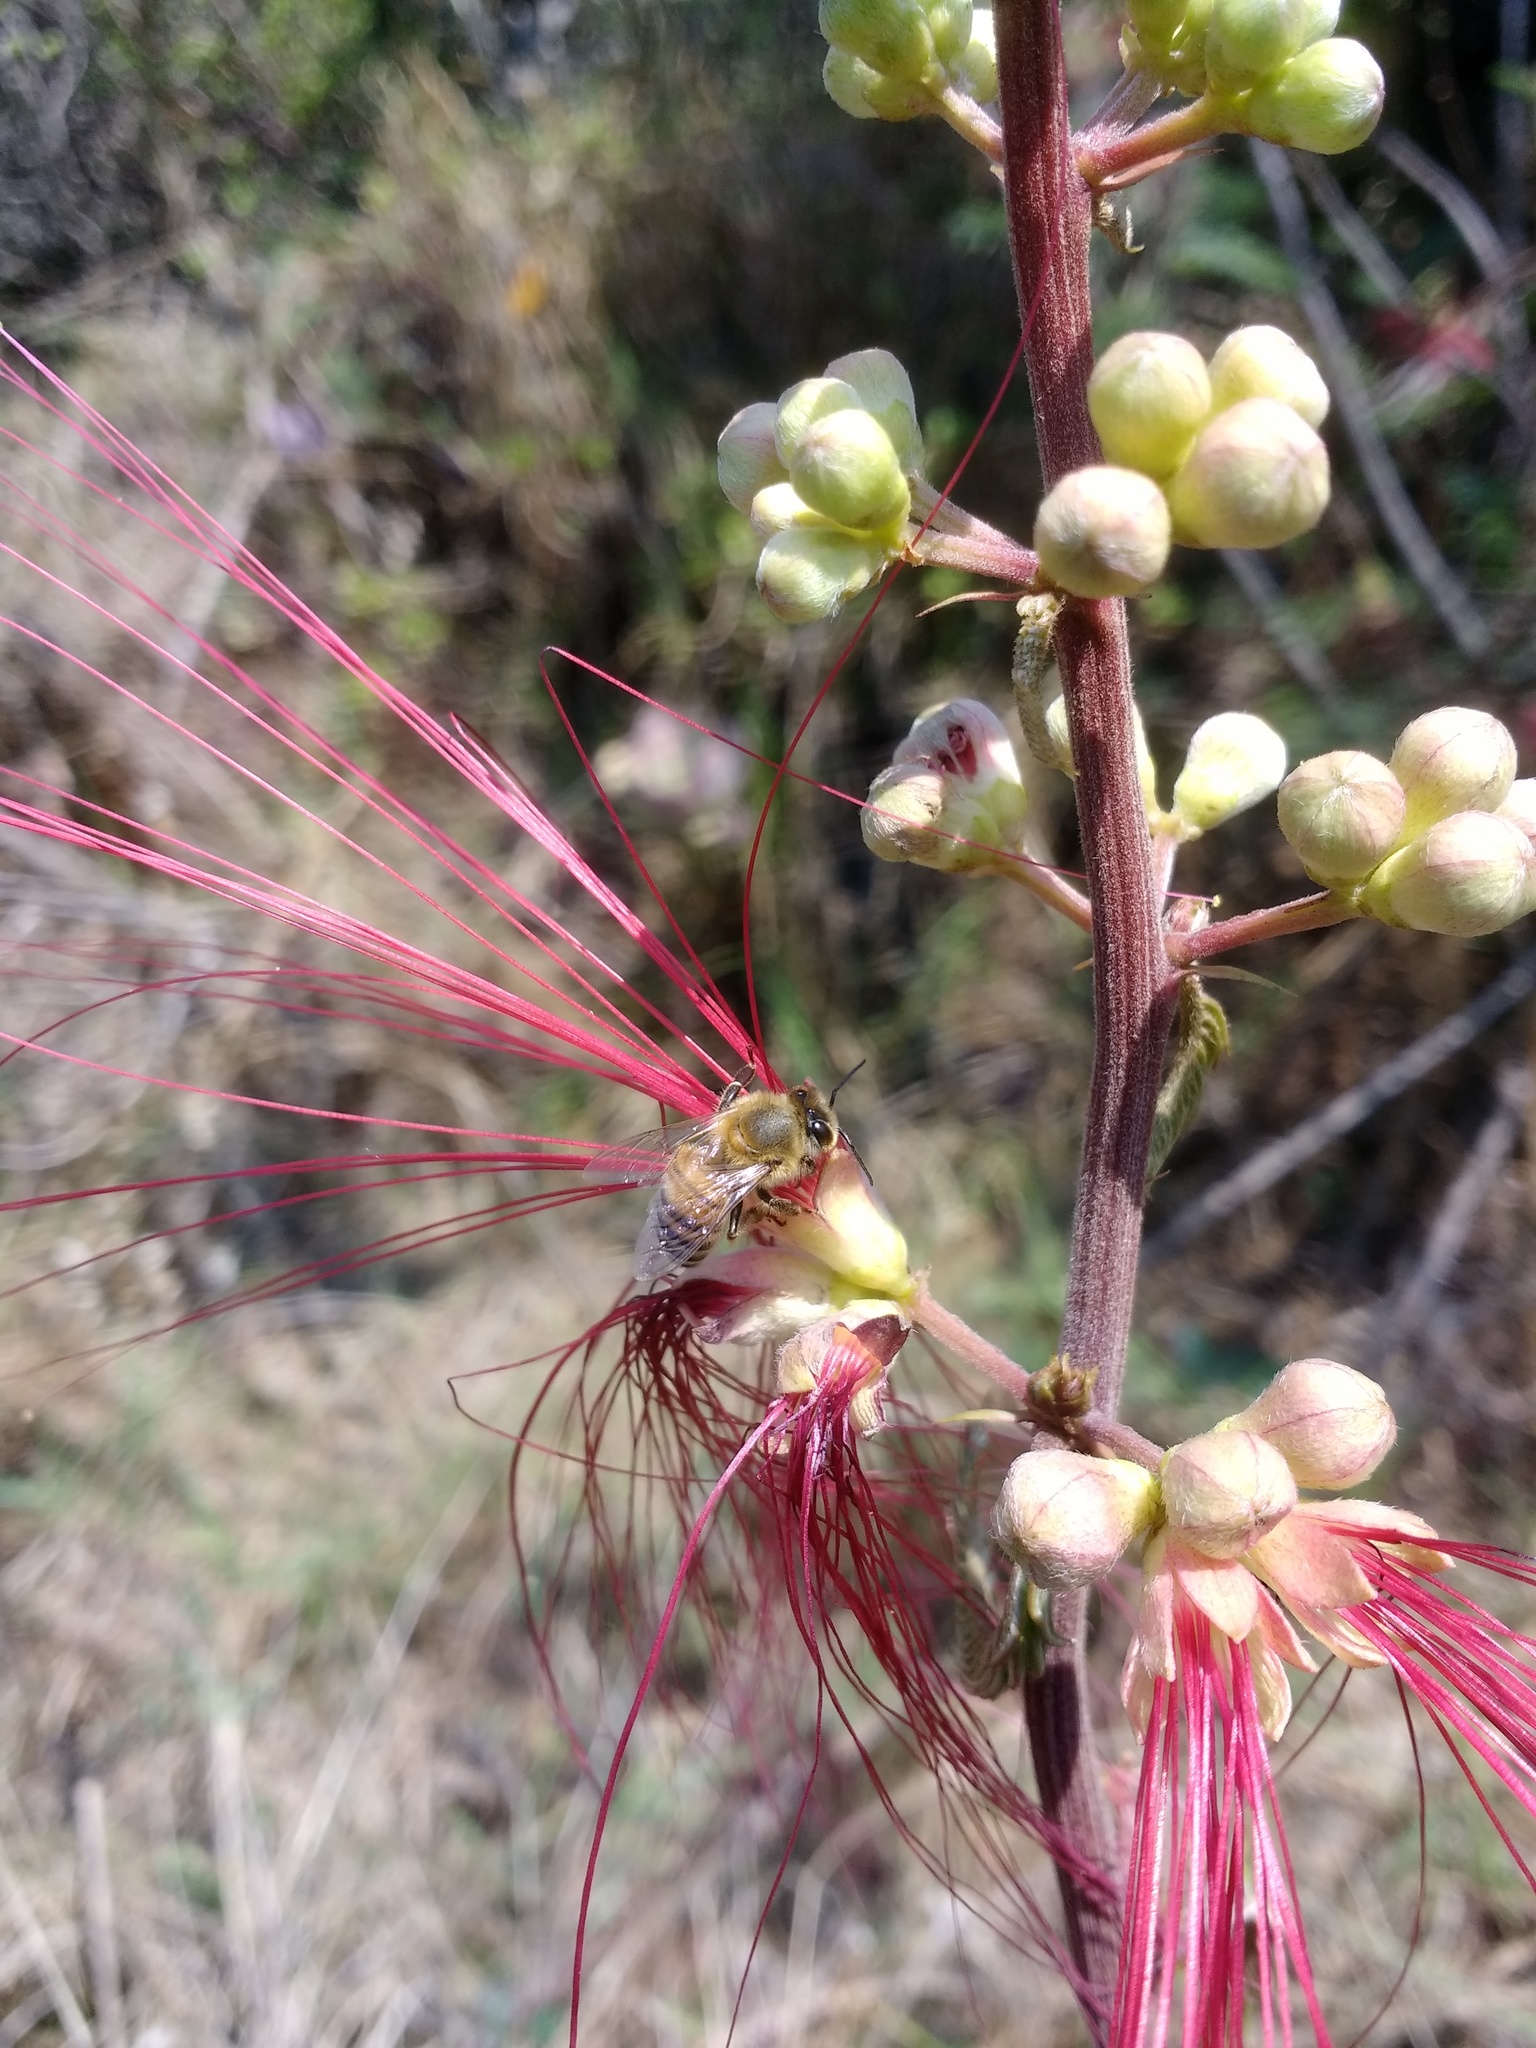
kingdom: Animalia
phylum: Arthropoda
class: Insecta
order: Hymenoptera
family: Apidae
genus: Apis
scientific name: Apis mellifera
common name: Honey bee
